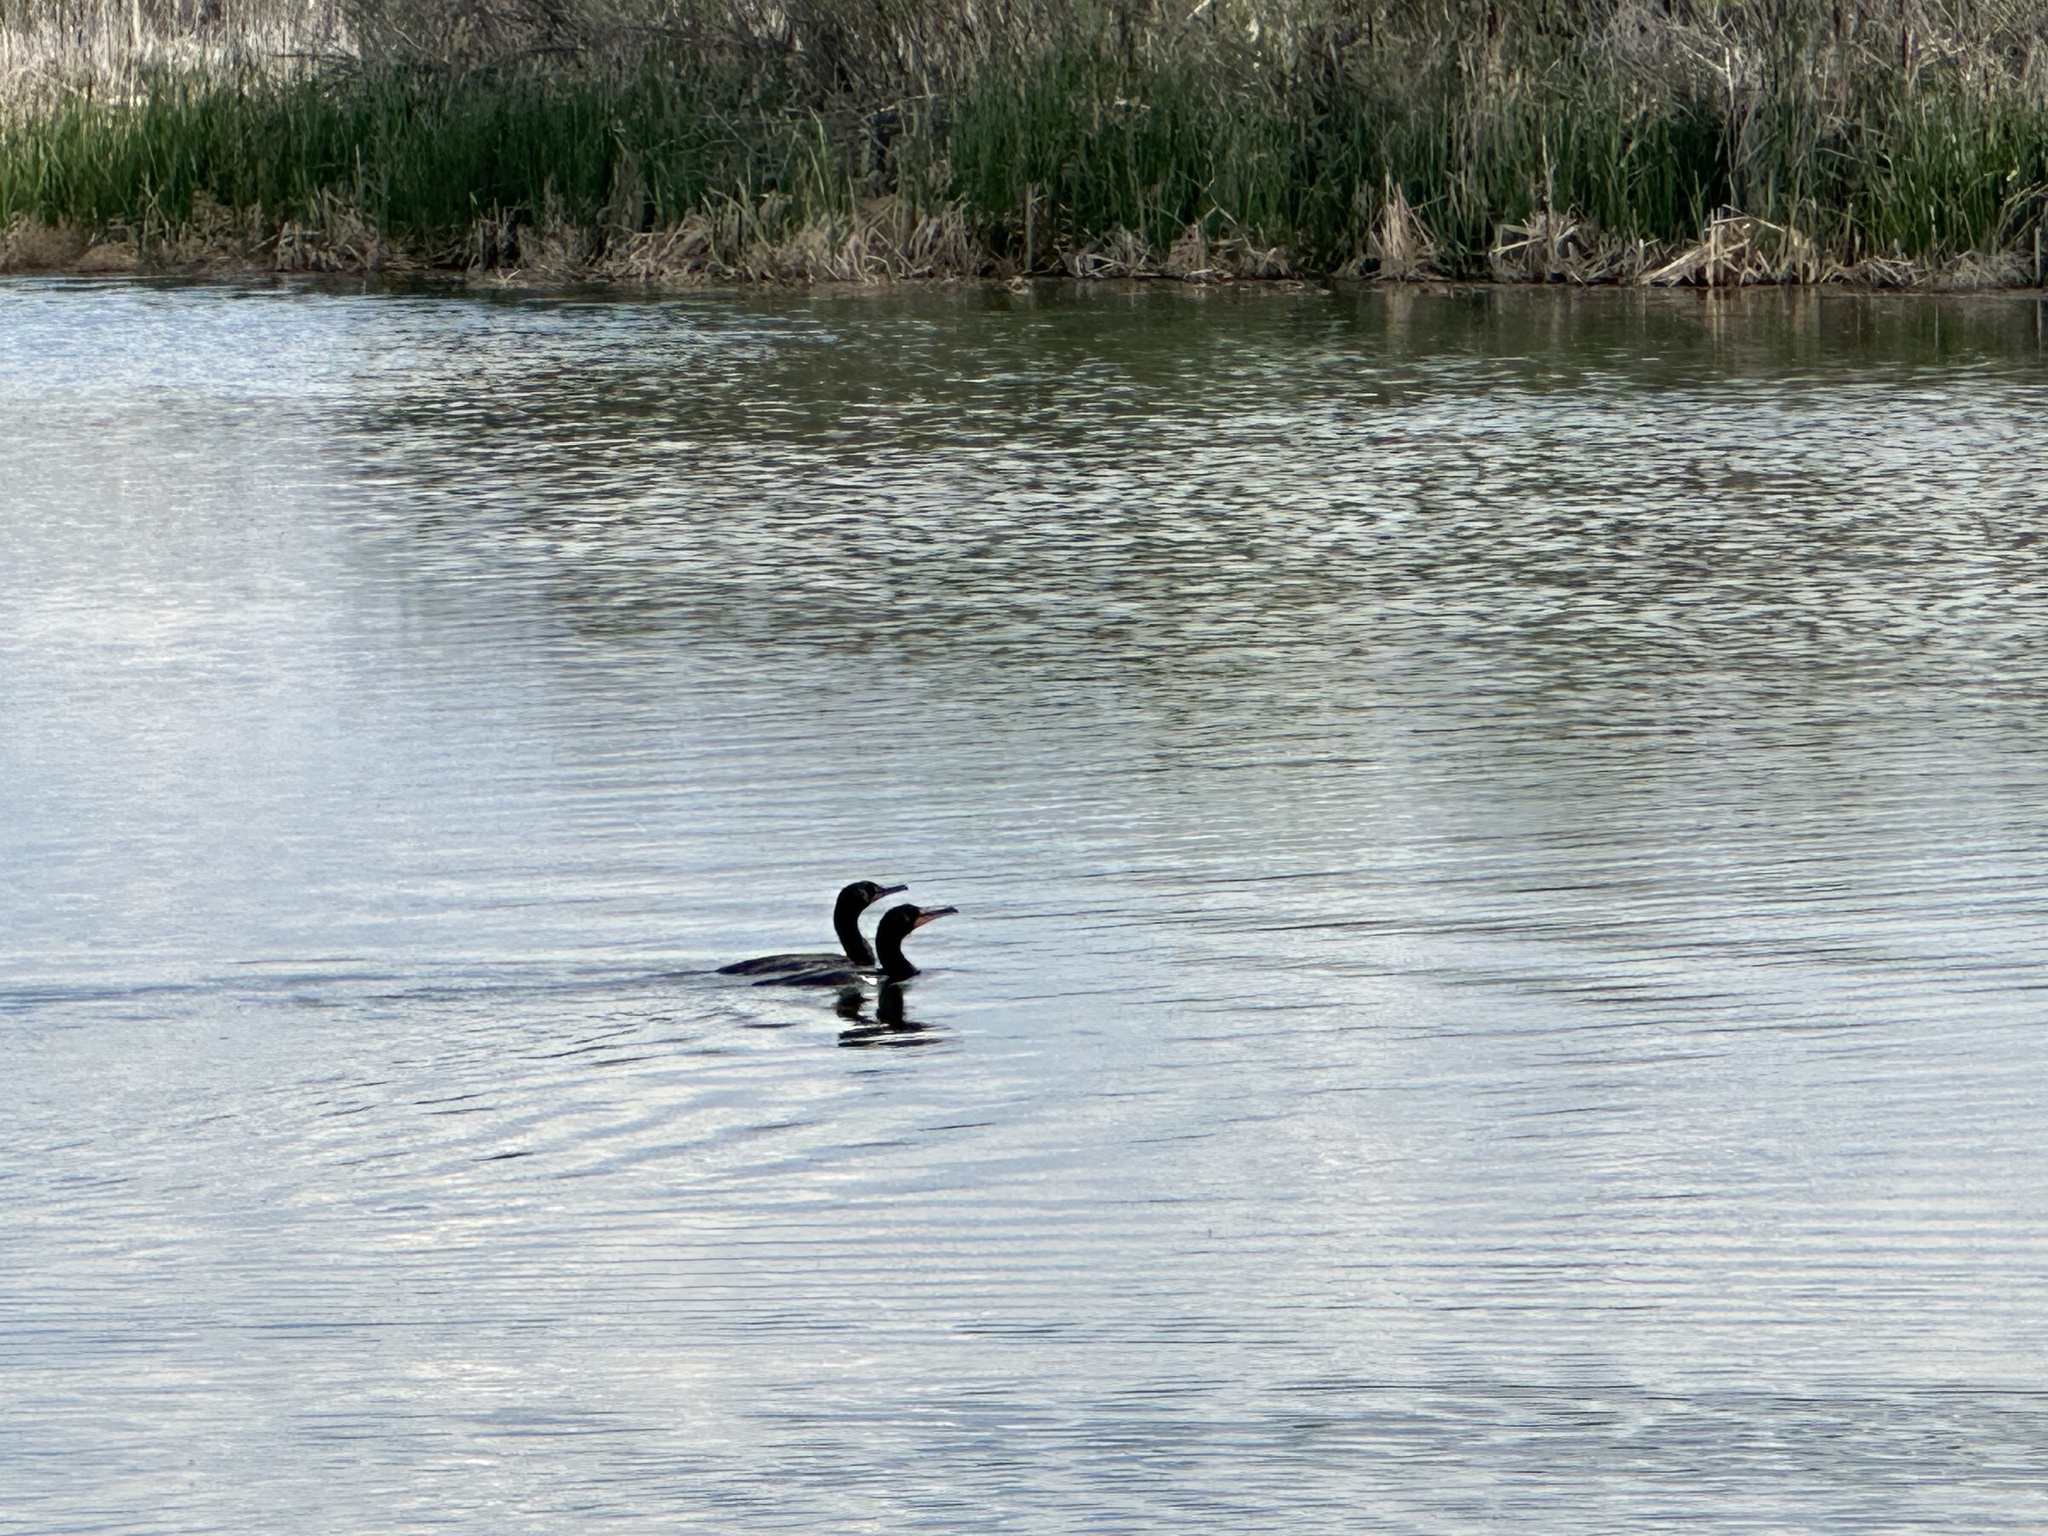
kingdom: Animalia
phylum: Chordata
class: Aves
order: Suliformes
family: Phalacrocoracidae
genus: Phalacrocorax
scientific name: Phalacrocorax auritus
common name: Double-crested cormorant
